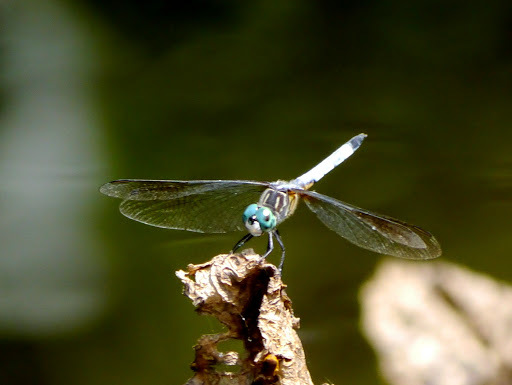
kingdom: Animalia
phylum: Arthropoda
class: Insecta
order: Odonata
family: Libellulidae
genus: Pachydiplax
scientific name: Pachydiplax longipennis
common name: Blue dasher
